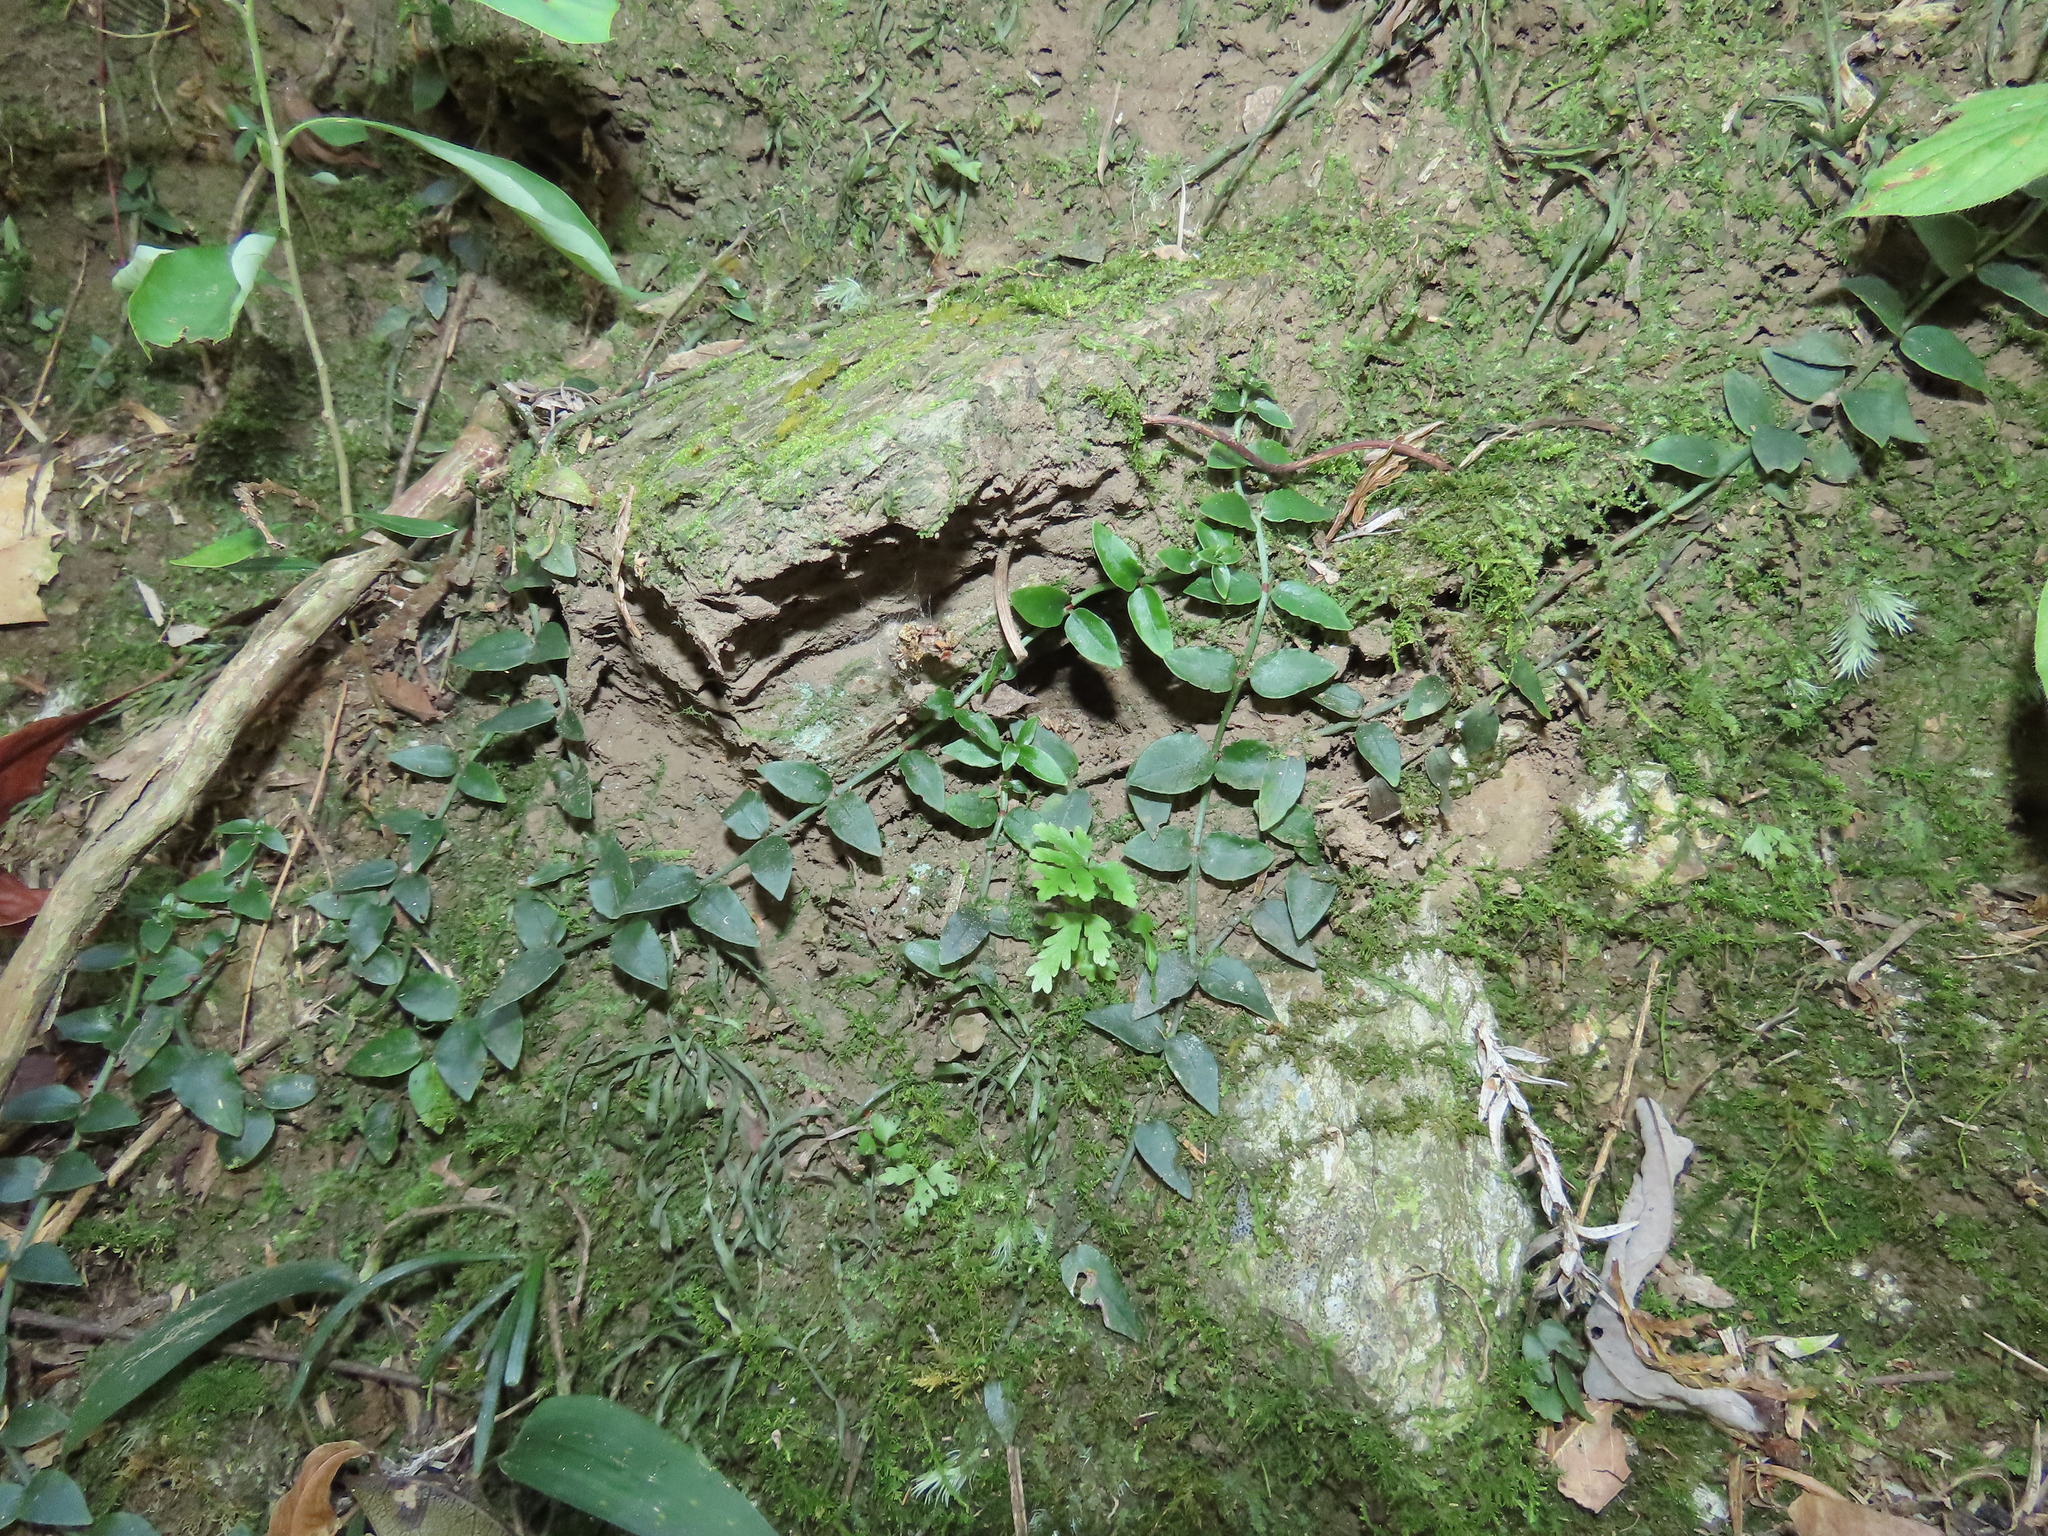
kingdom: Plantae
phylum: Tracheophyta
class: Magnoliopsida
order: Gentianales
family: Rubiaceae
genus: Psychotria
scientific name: Psychotria serpens
